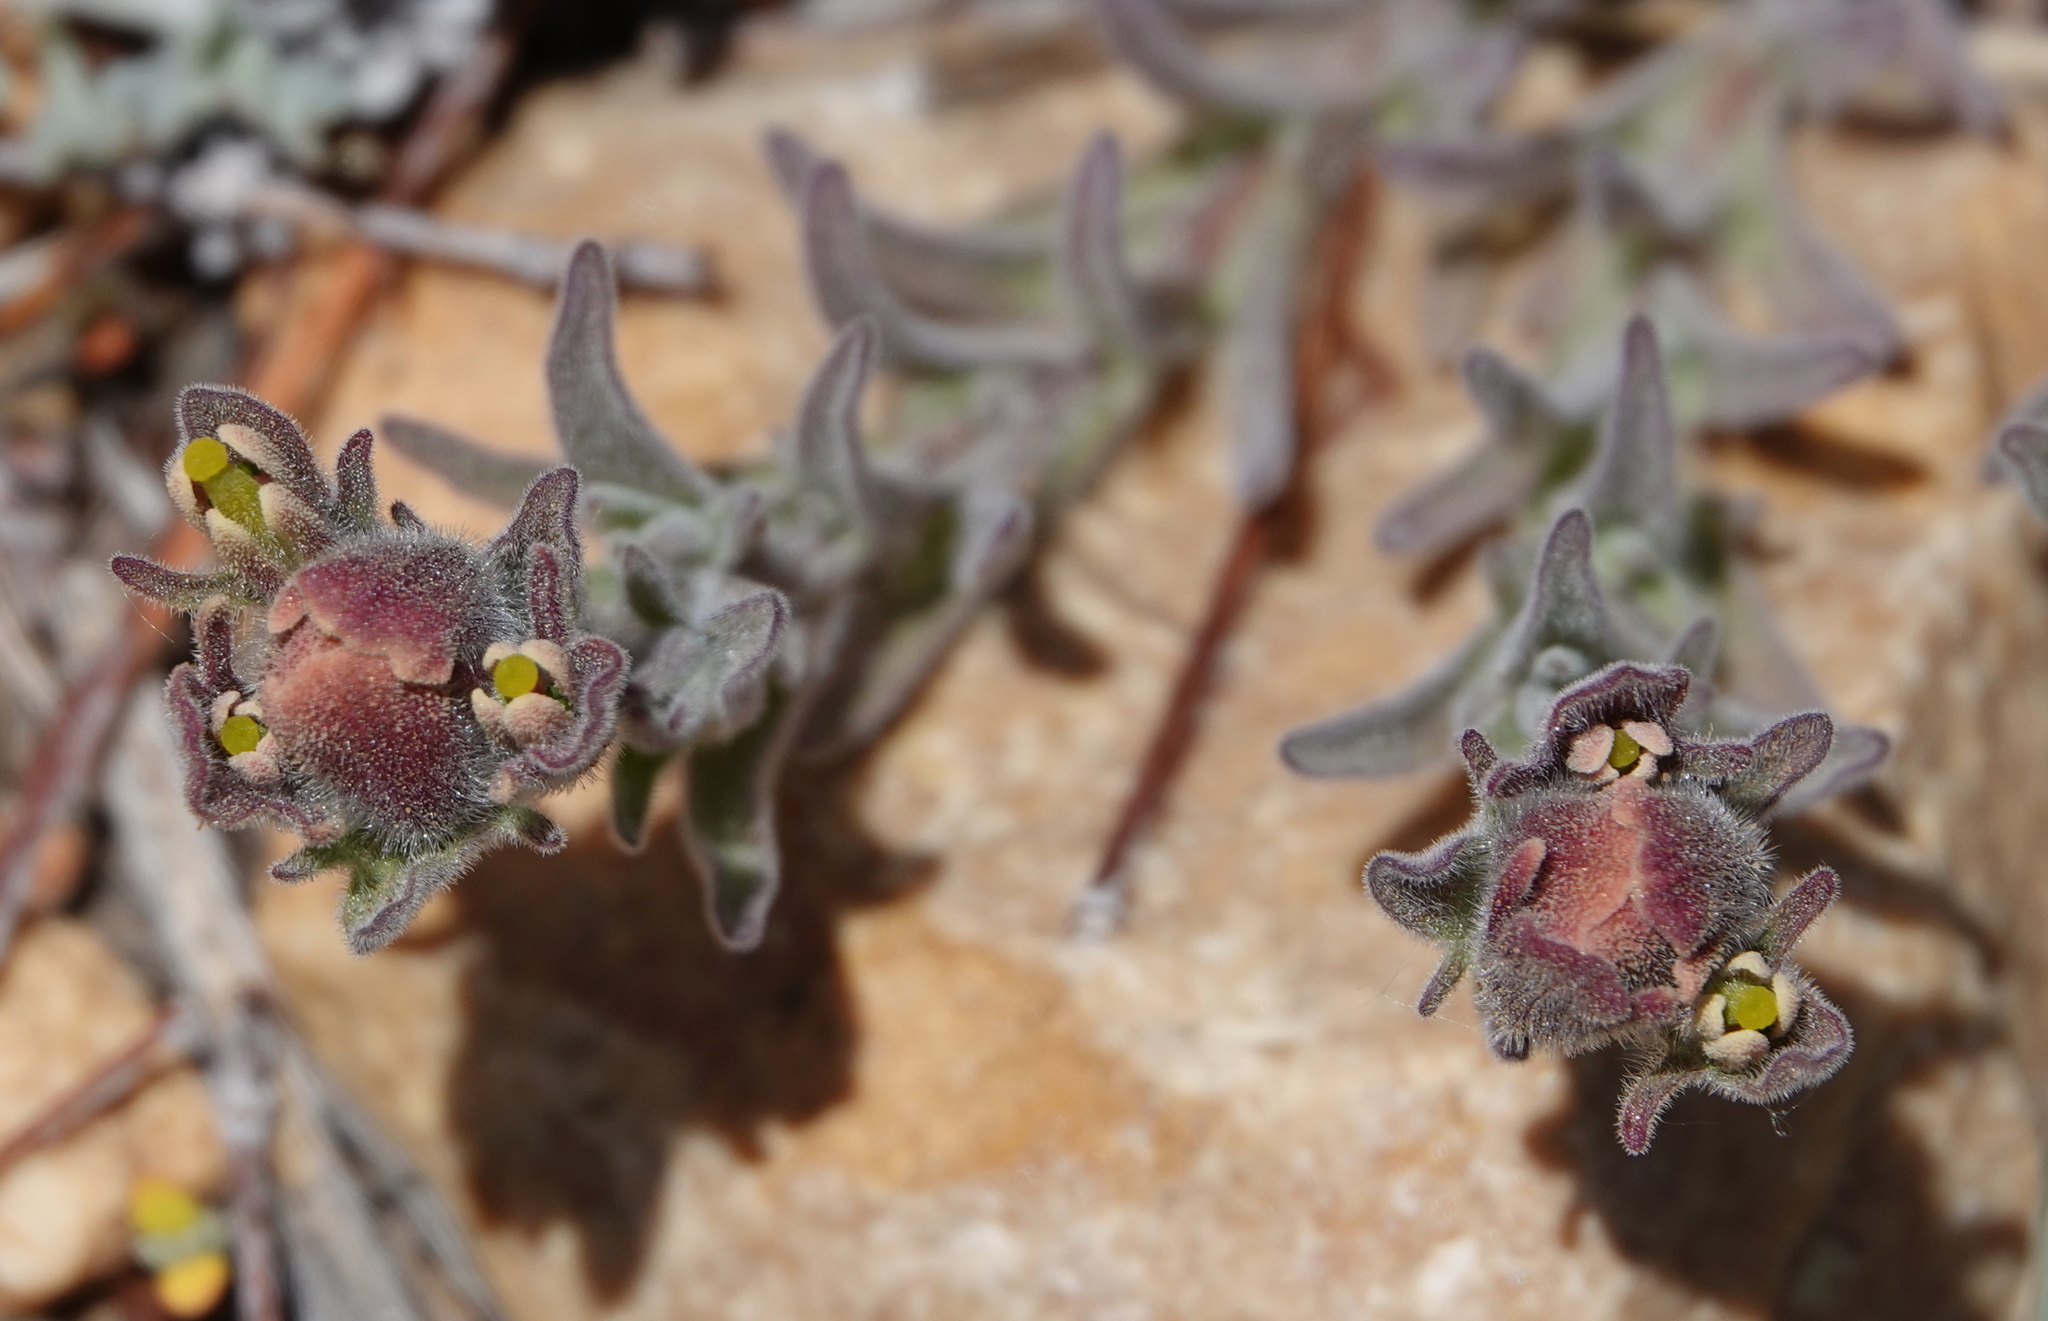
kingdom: Plantae
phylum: Tracheophyta
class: Magnoliopsida
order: Lamiales
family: Orobanchaceae
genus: Castilleja
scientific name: Castilleja cinerea
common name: Ash-gray indian paintbrush
